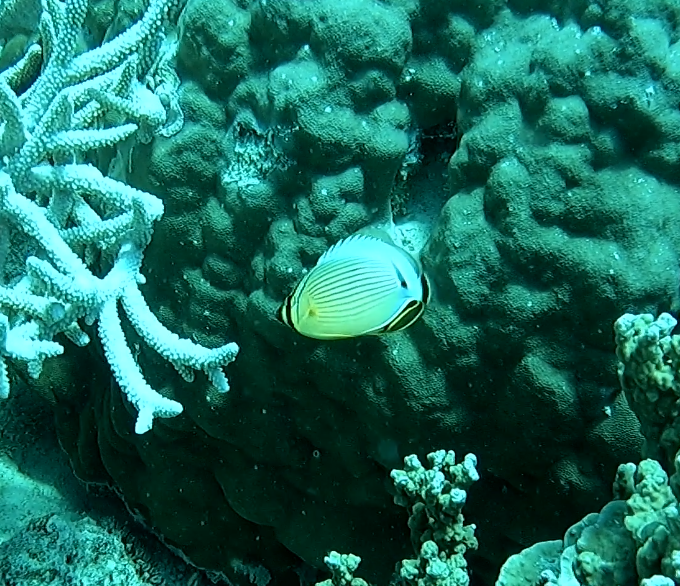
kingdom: Animalia
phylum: Chordata
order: Perciformes
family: Chaetodontidae
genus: Chaetodon
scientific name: Chaetodon lunulatus
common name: Redfin butterflyfish
